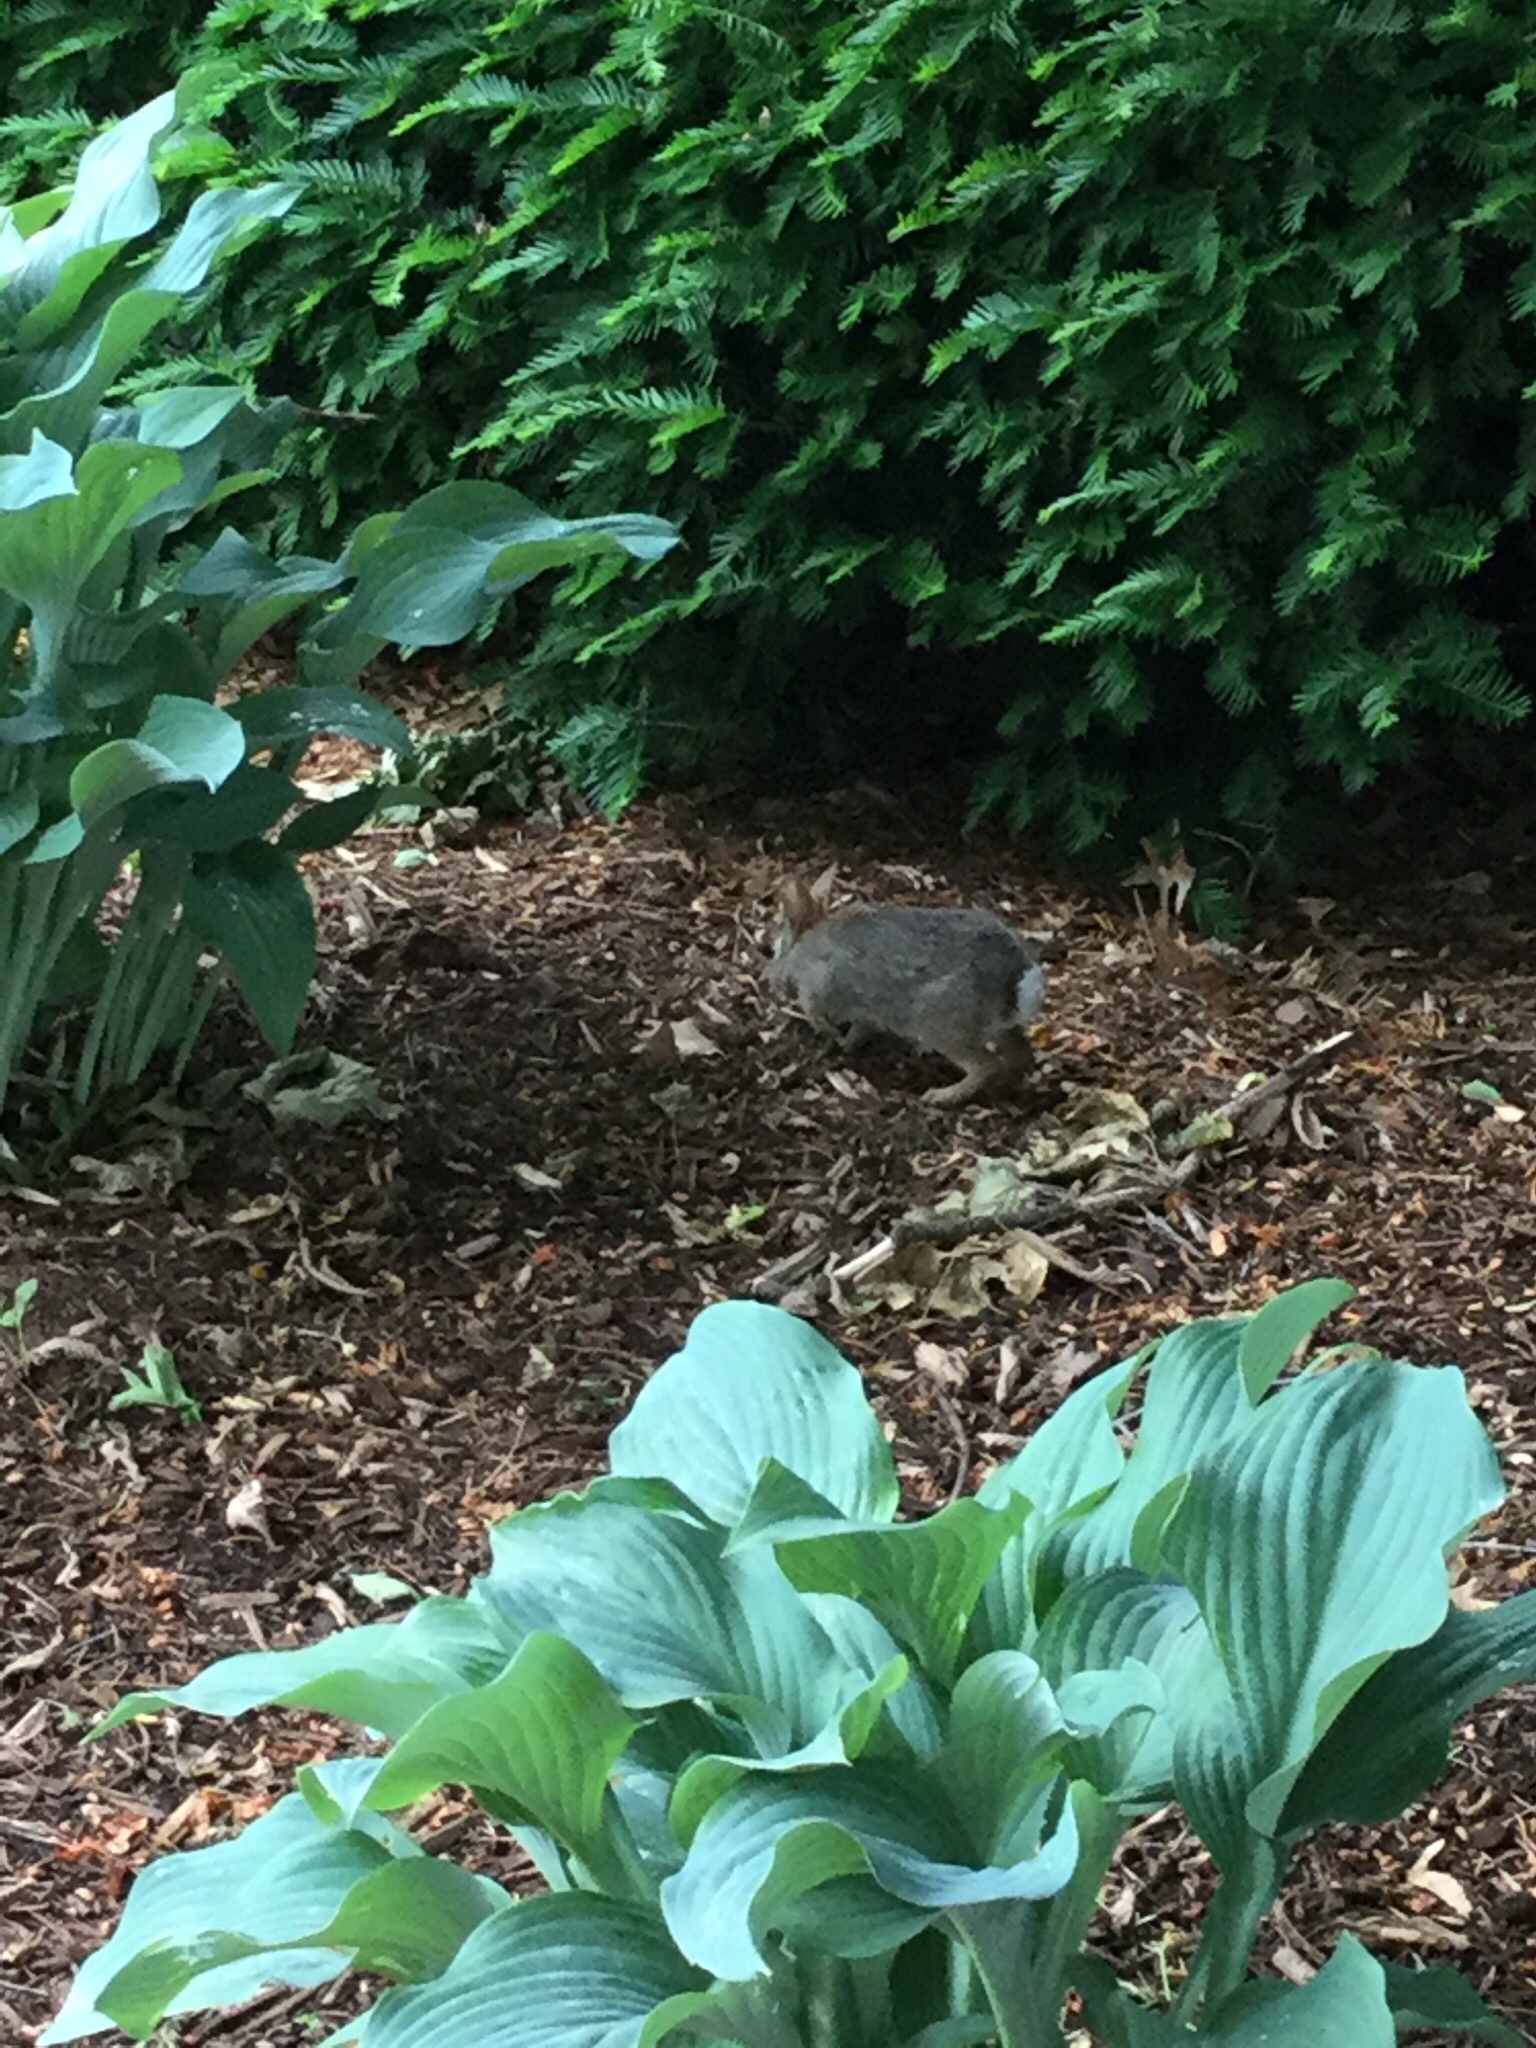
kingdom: Animalia
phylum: Chordata
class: Mammalia
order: Lagomorpha
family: Leporidae
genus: Sylvilagus
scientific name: Sylvilagus floridanus
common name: Eastern cottontail
